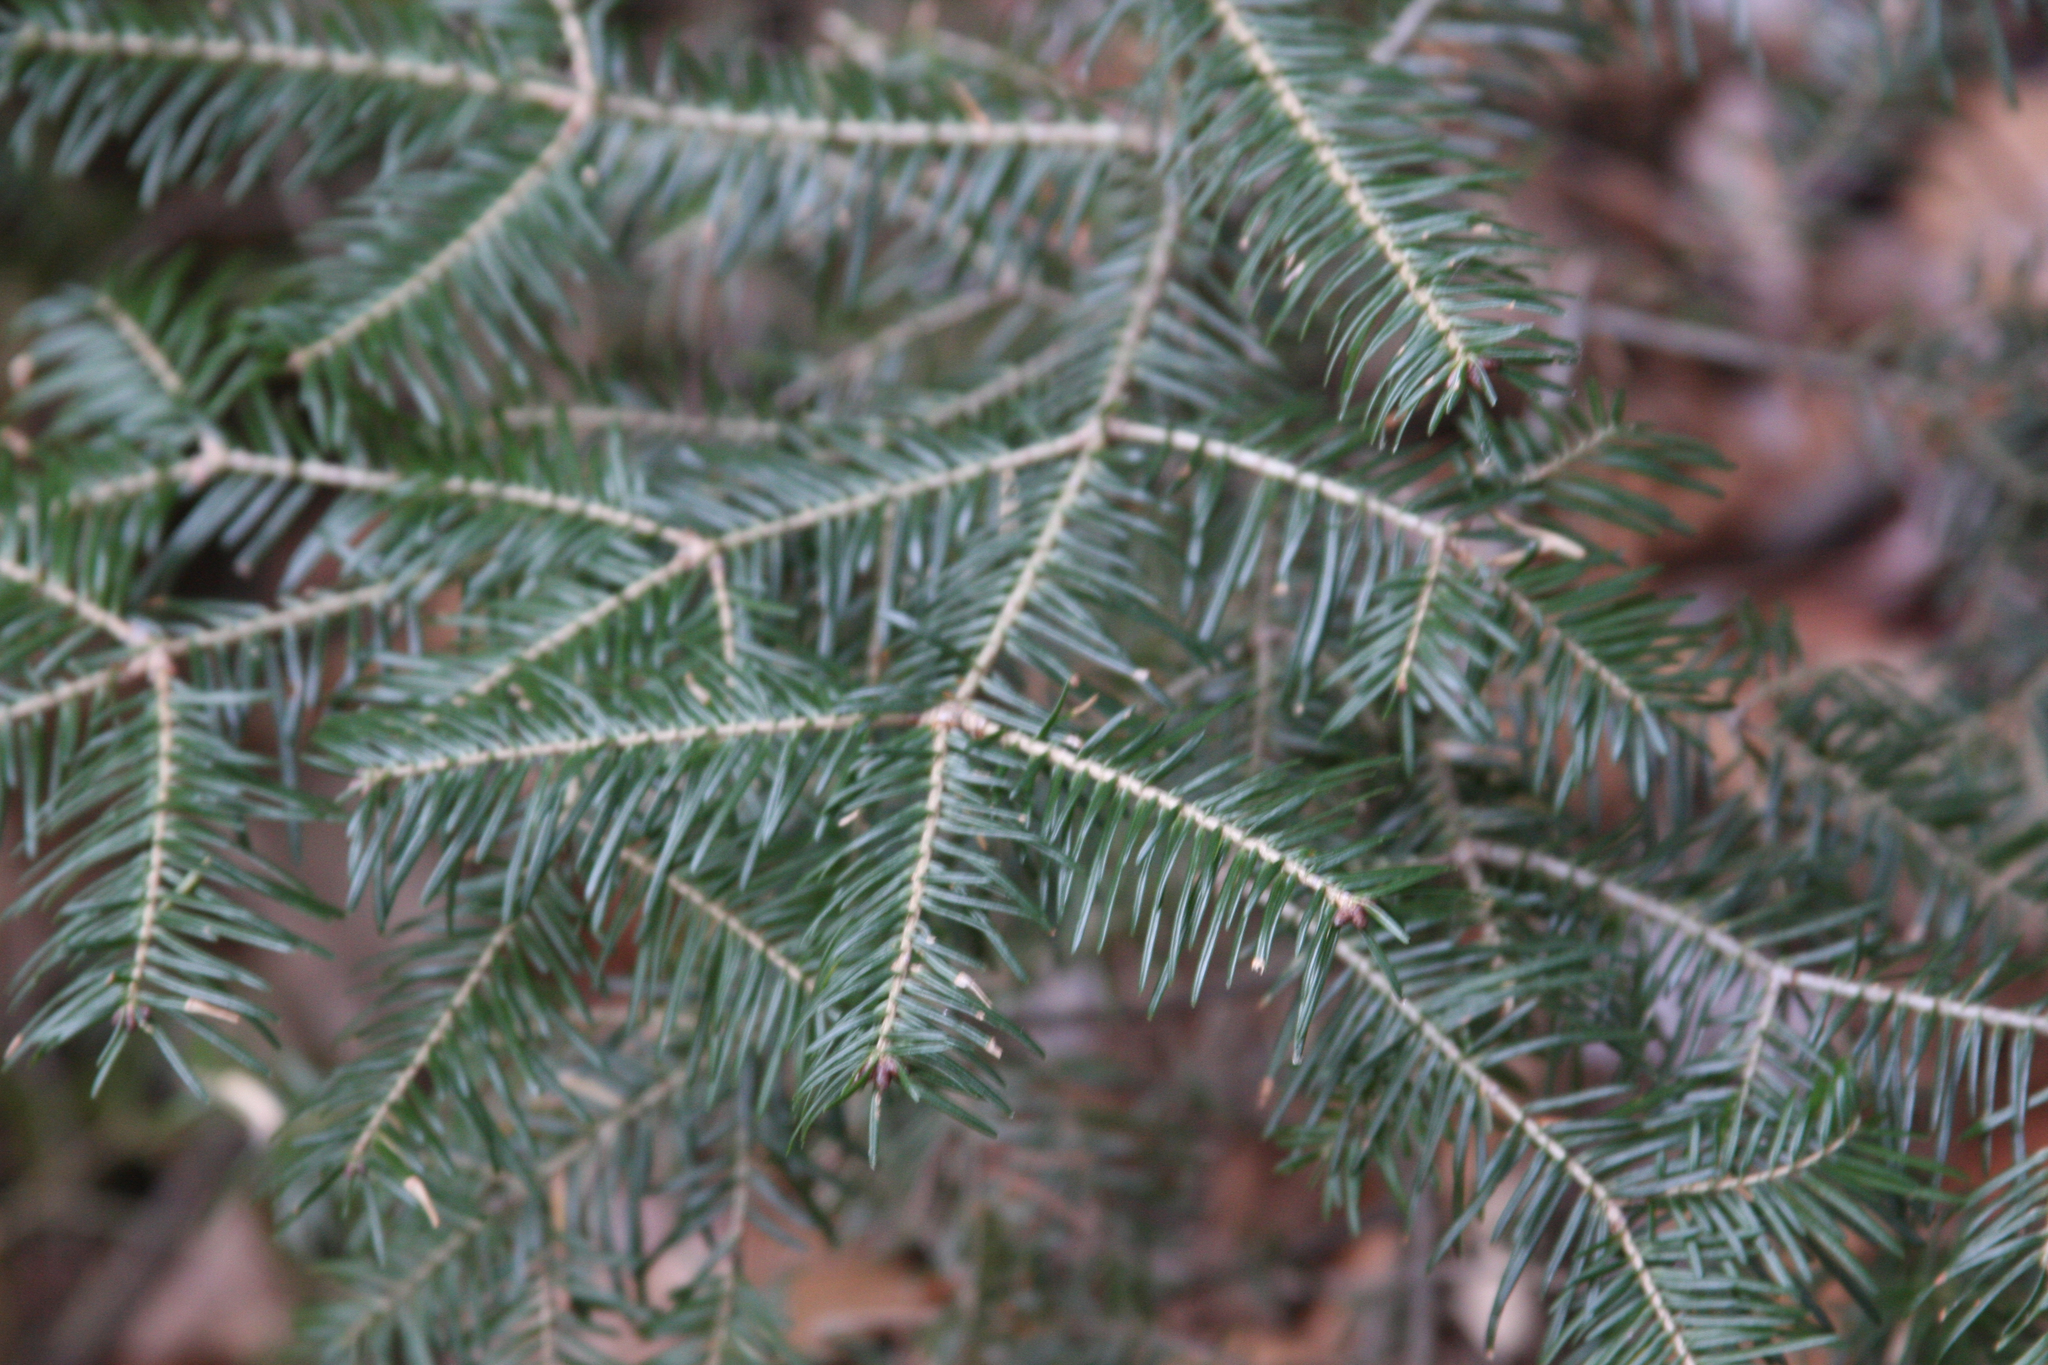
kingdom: Plantae
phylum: Tracheophyta
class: Pinopsida
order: Pinales
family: Pinaceae
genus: Abies
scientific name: Abies balsamea
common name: Balsam fir
